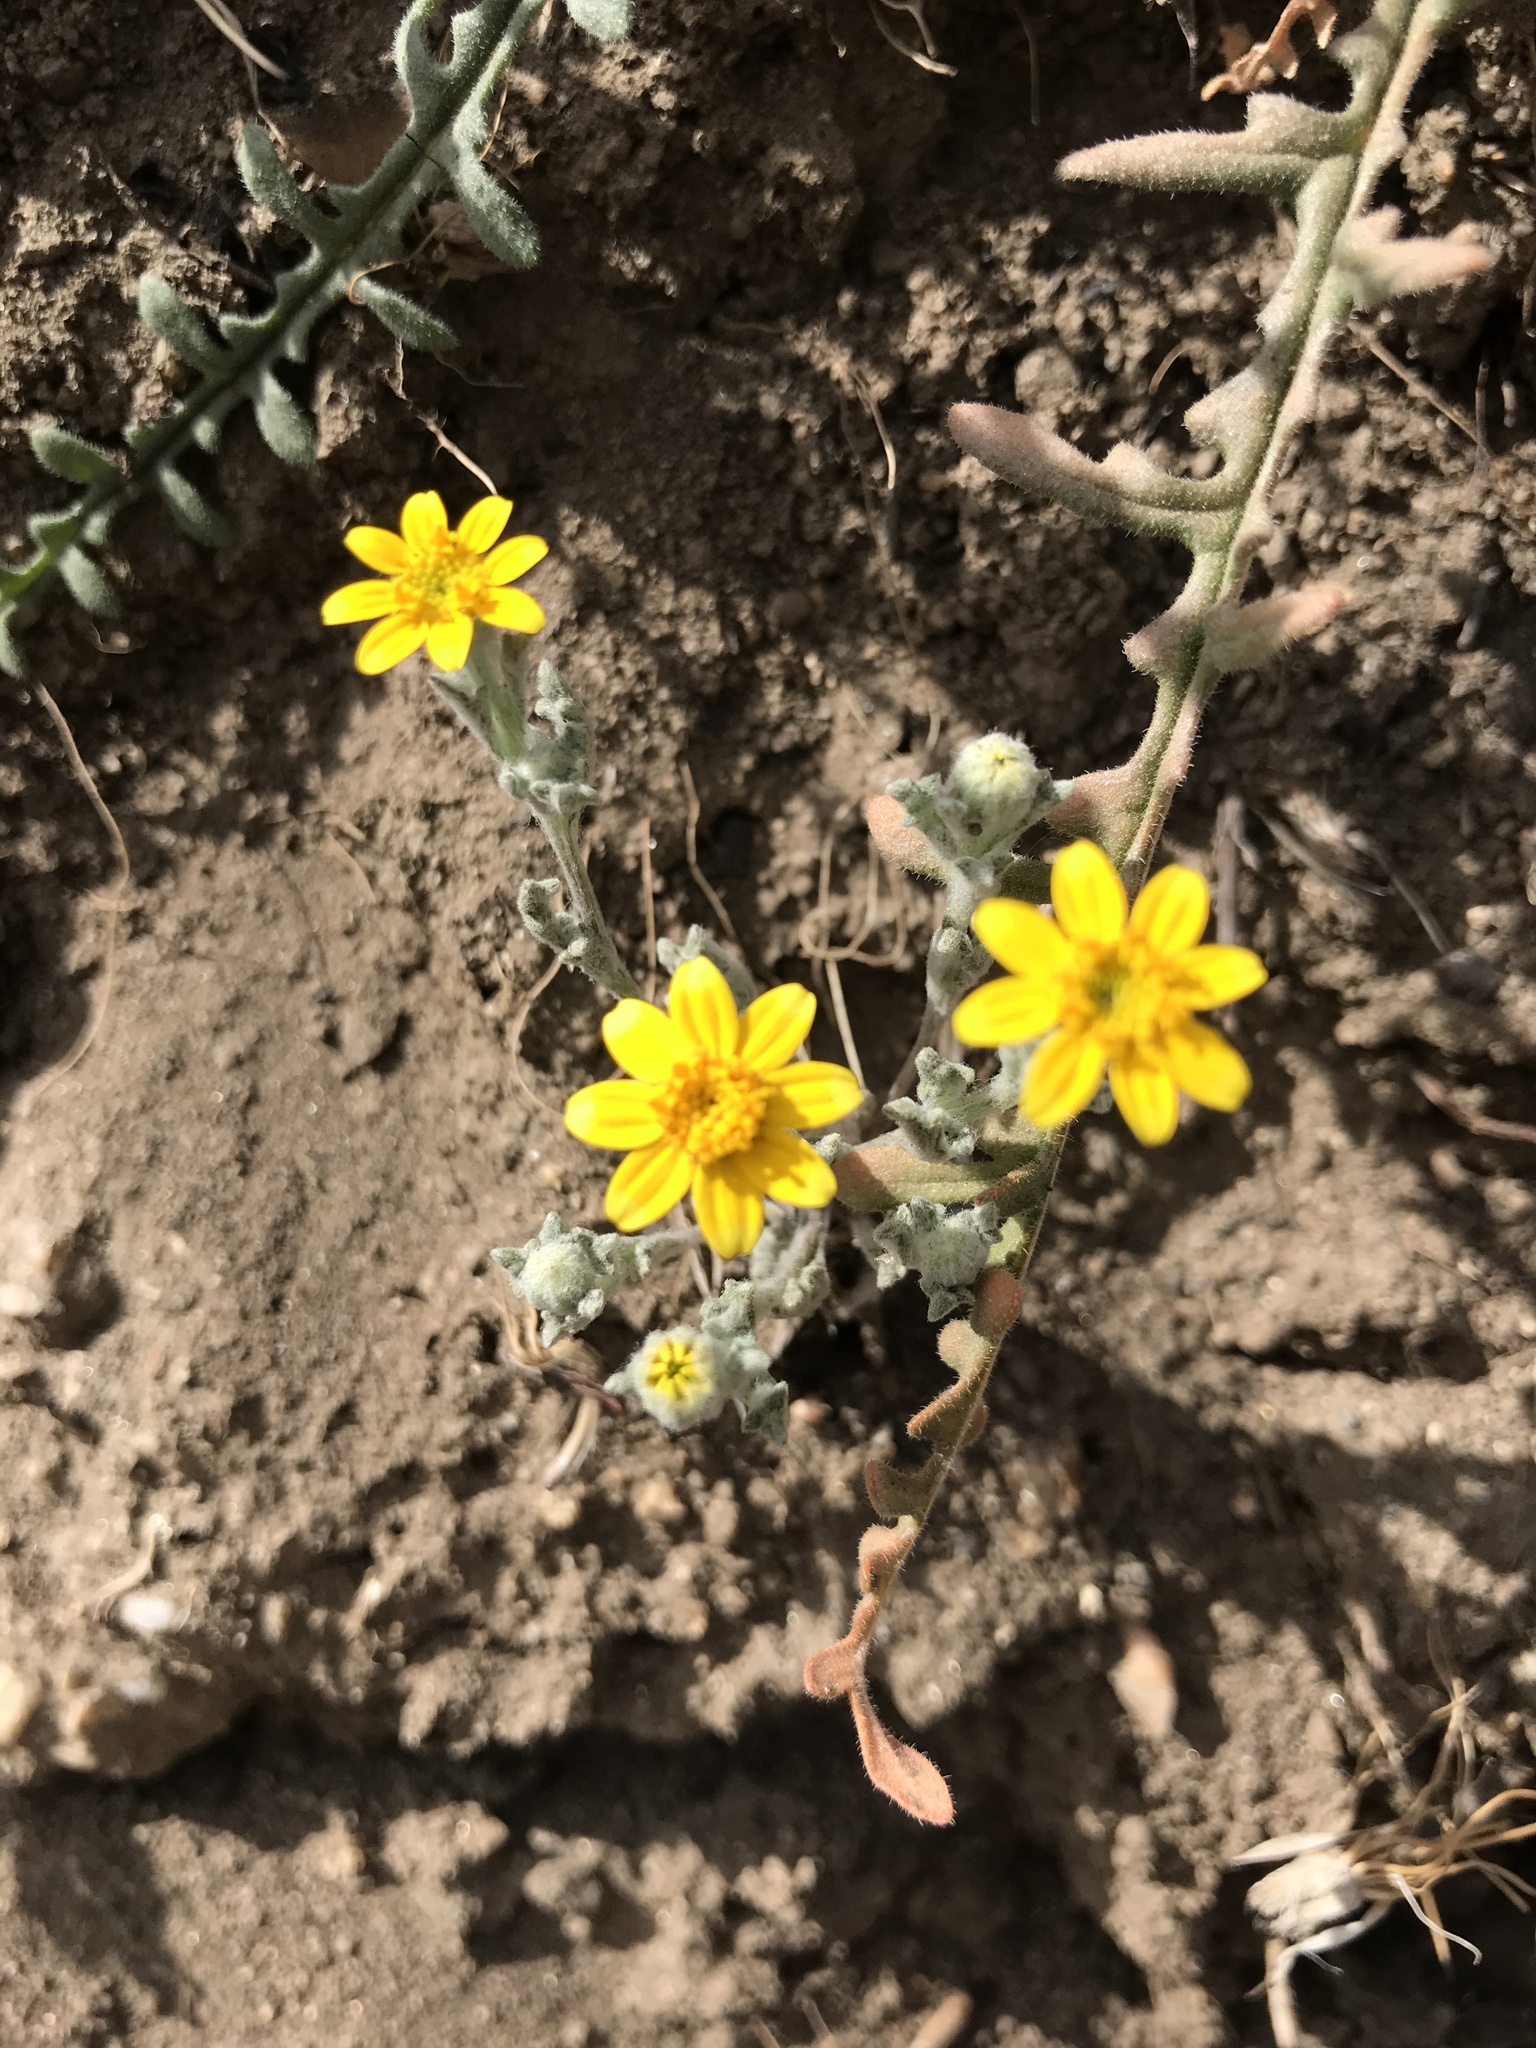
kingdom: Plantae
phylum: Tracheophyta
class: Magnoliopsida
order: Asterales
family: Asteraceae
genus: Eriophyllum
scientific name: Eriophyllum ambiguum
